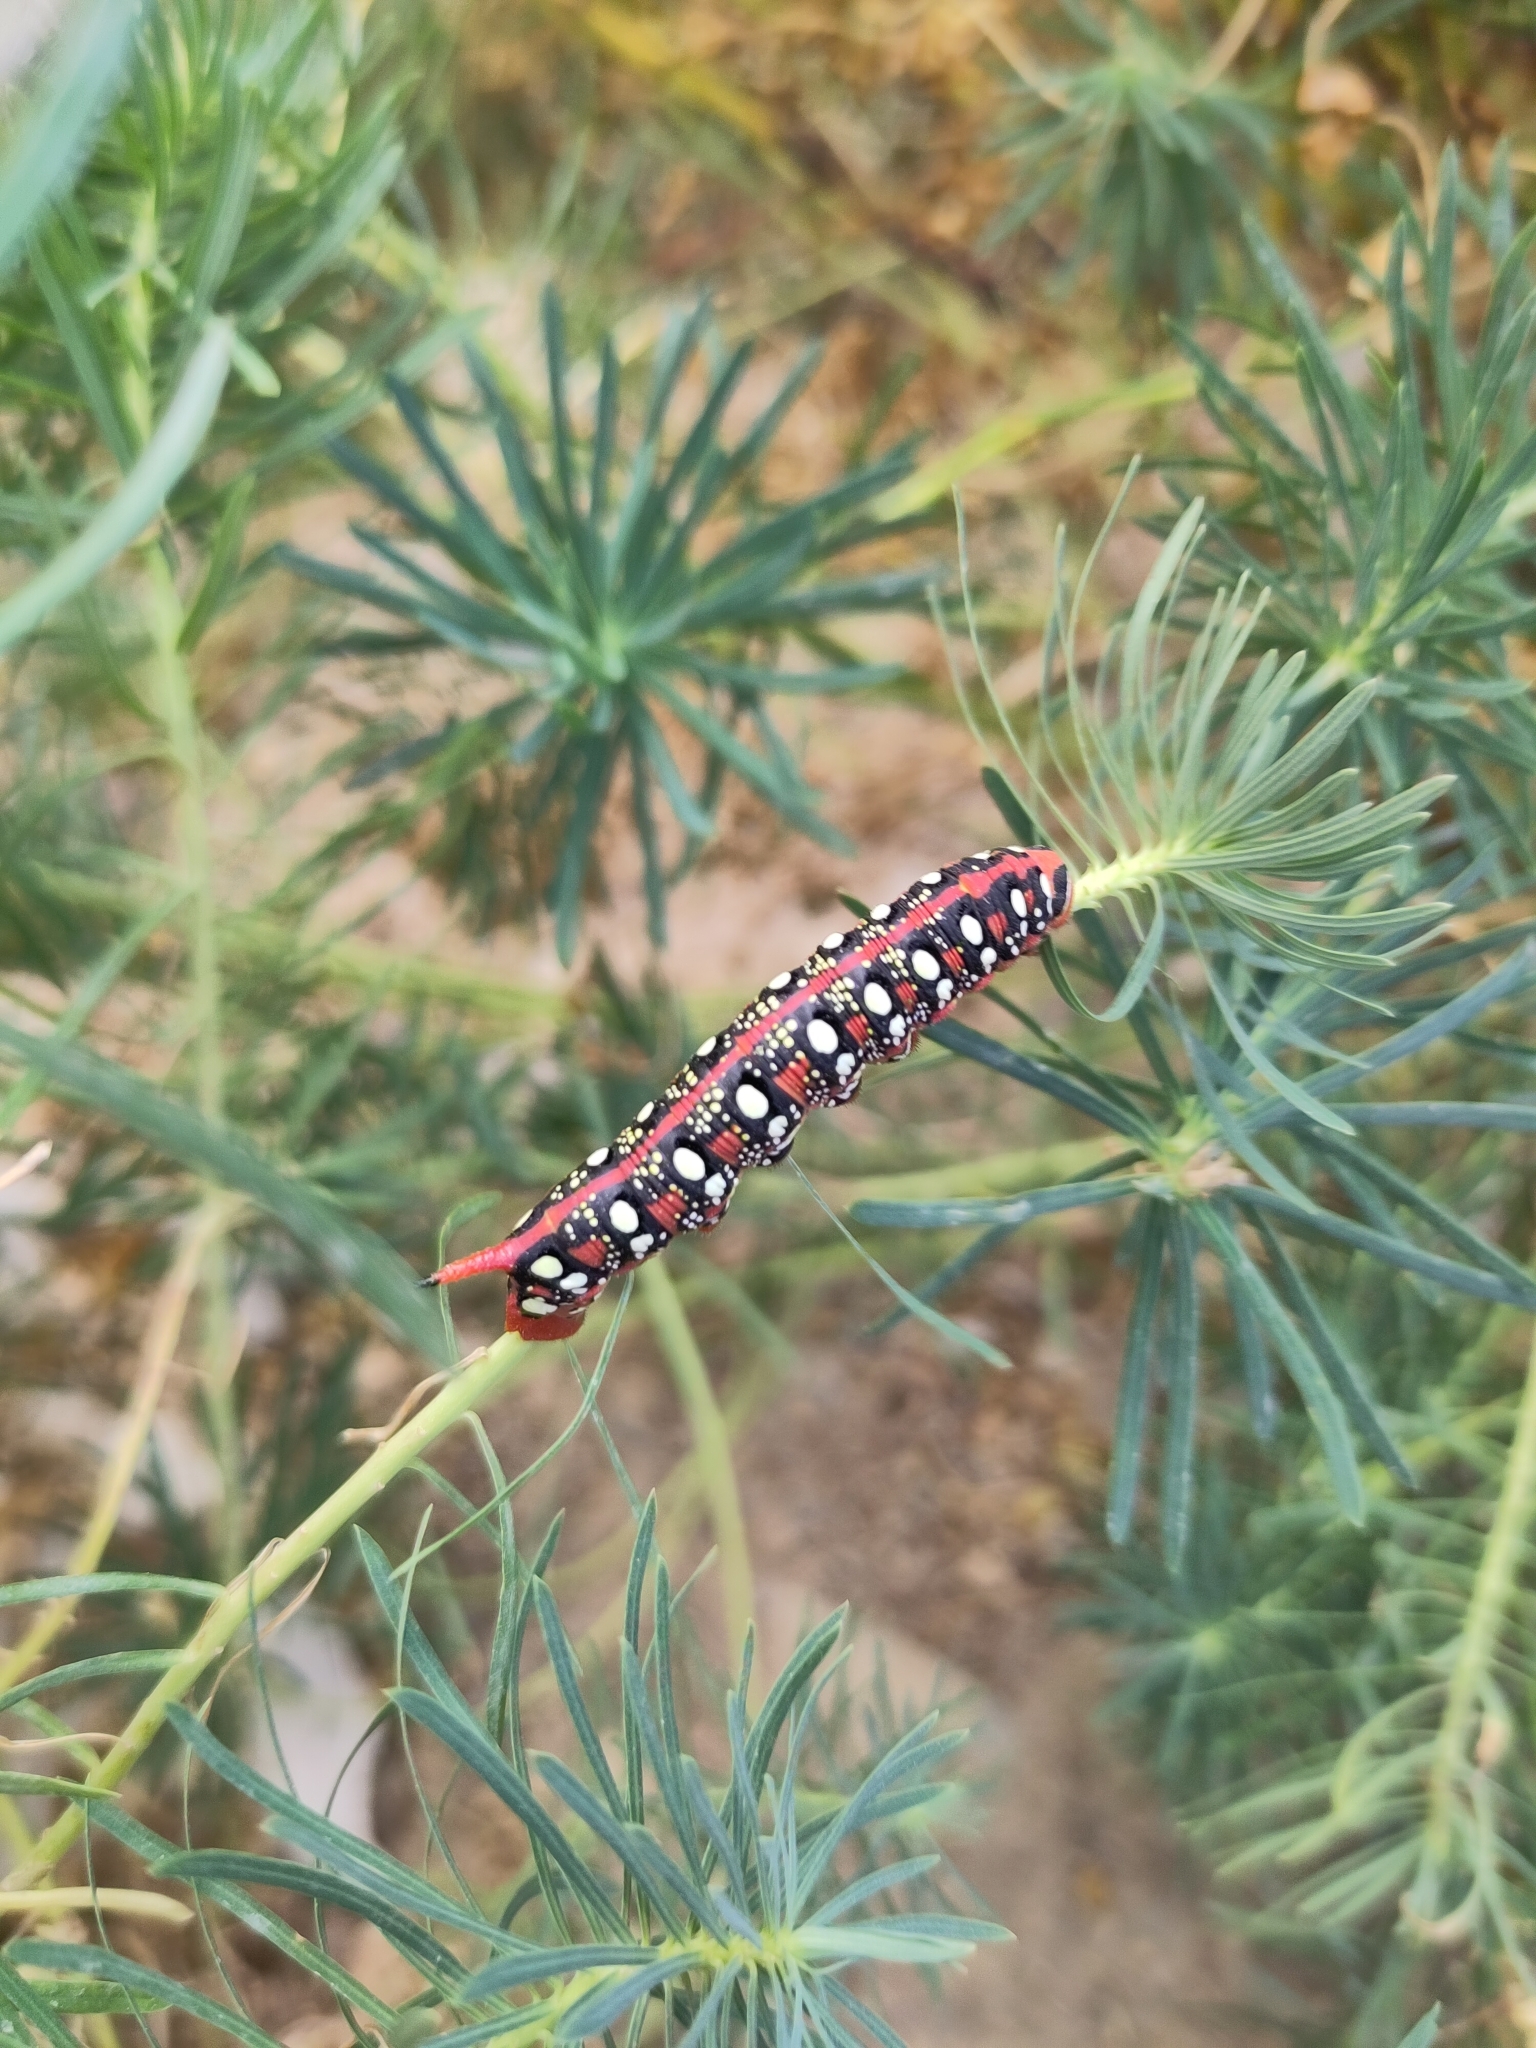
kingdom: Animalia
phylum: Arthropoda
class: Insecta
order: Lepidoptera
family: Sphingidae
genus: Hyles
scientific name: Hyles euphorbiae
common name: Spurge hawk-moth
